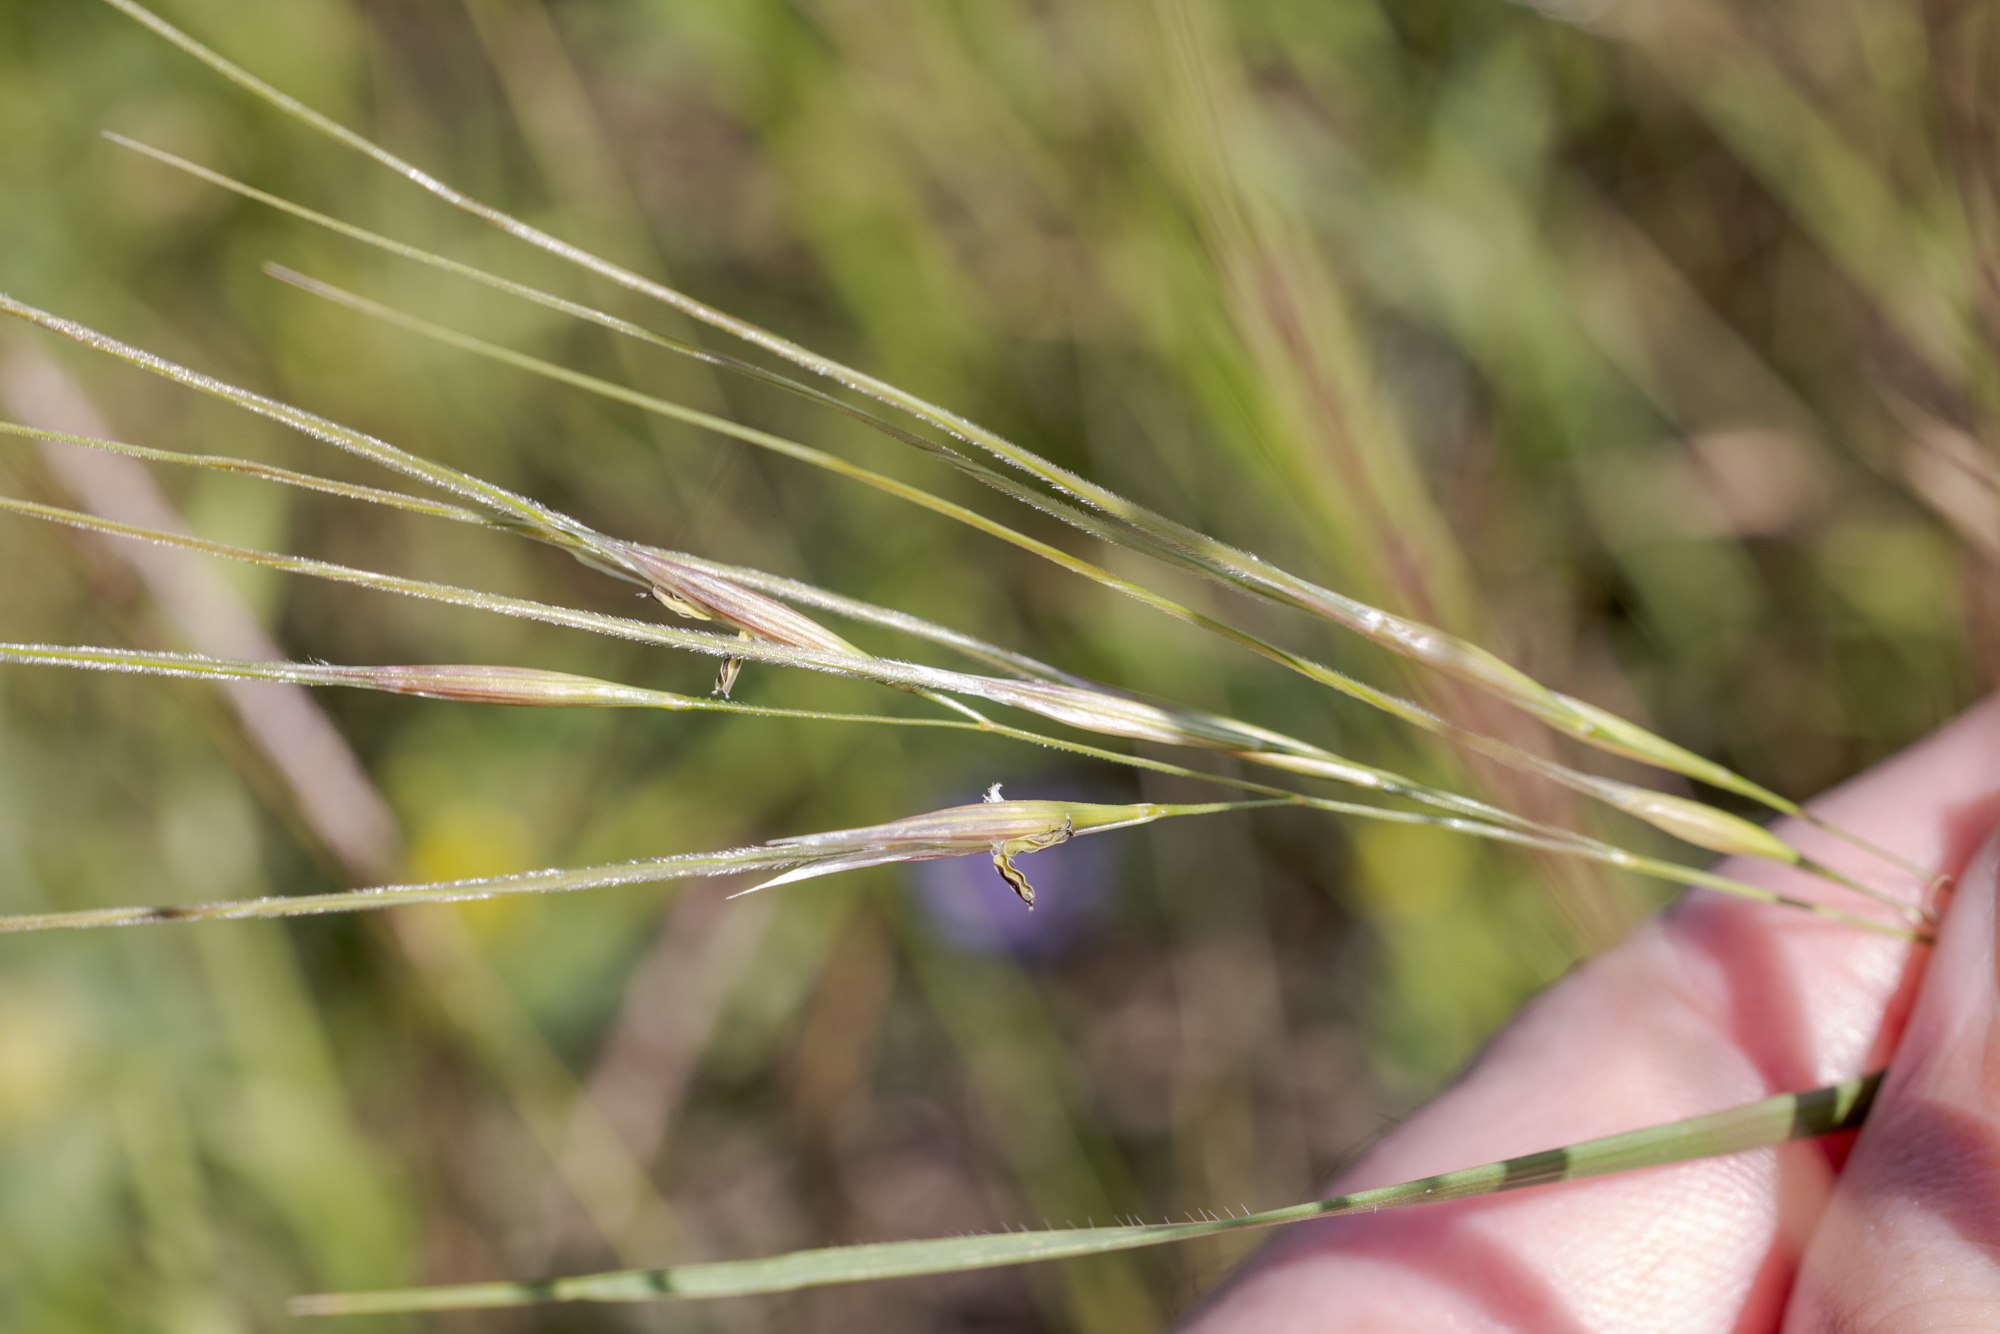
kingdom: Plantae
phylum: Tracheophyta
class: Liliopsida
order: Poales
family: Poaceae
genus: Nassella
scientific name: Nassella leucotricha
